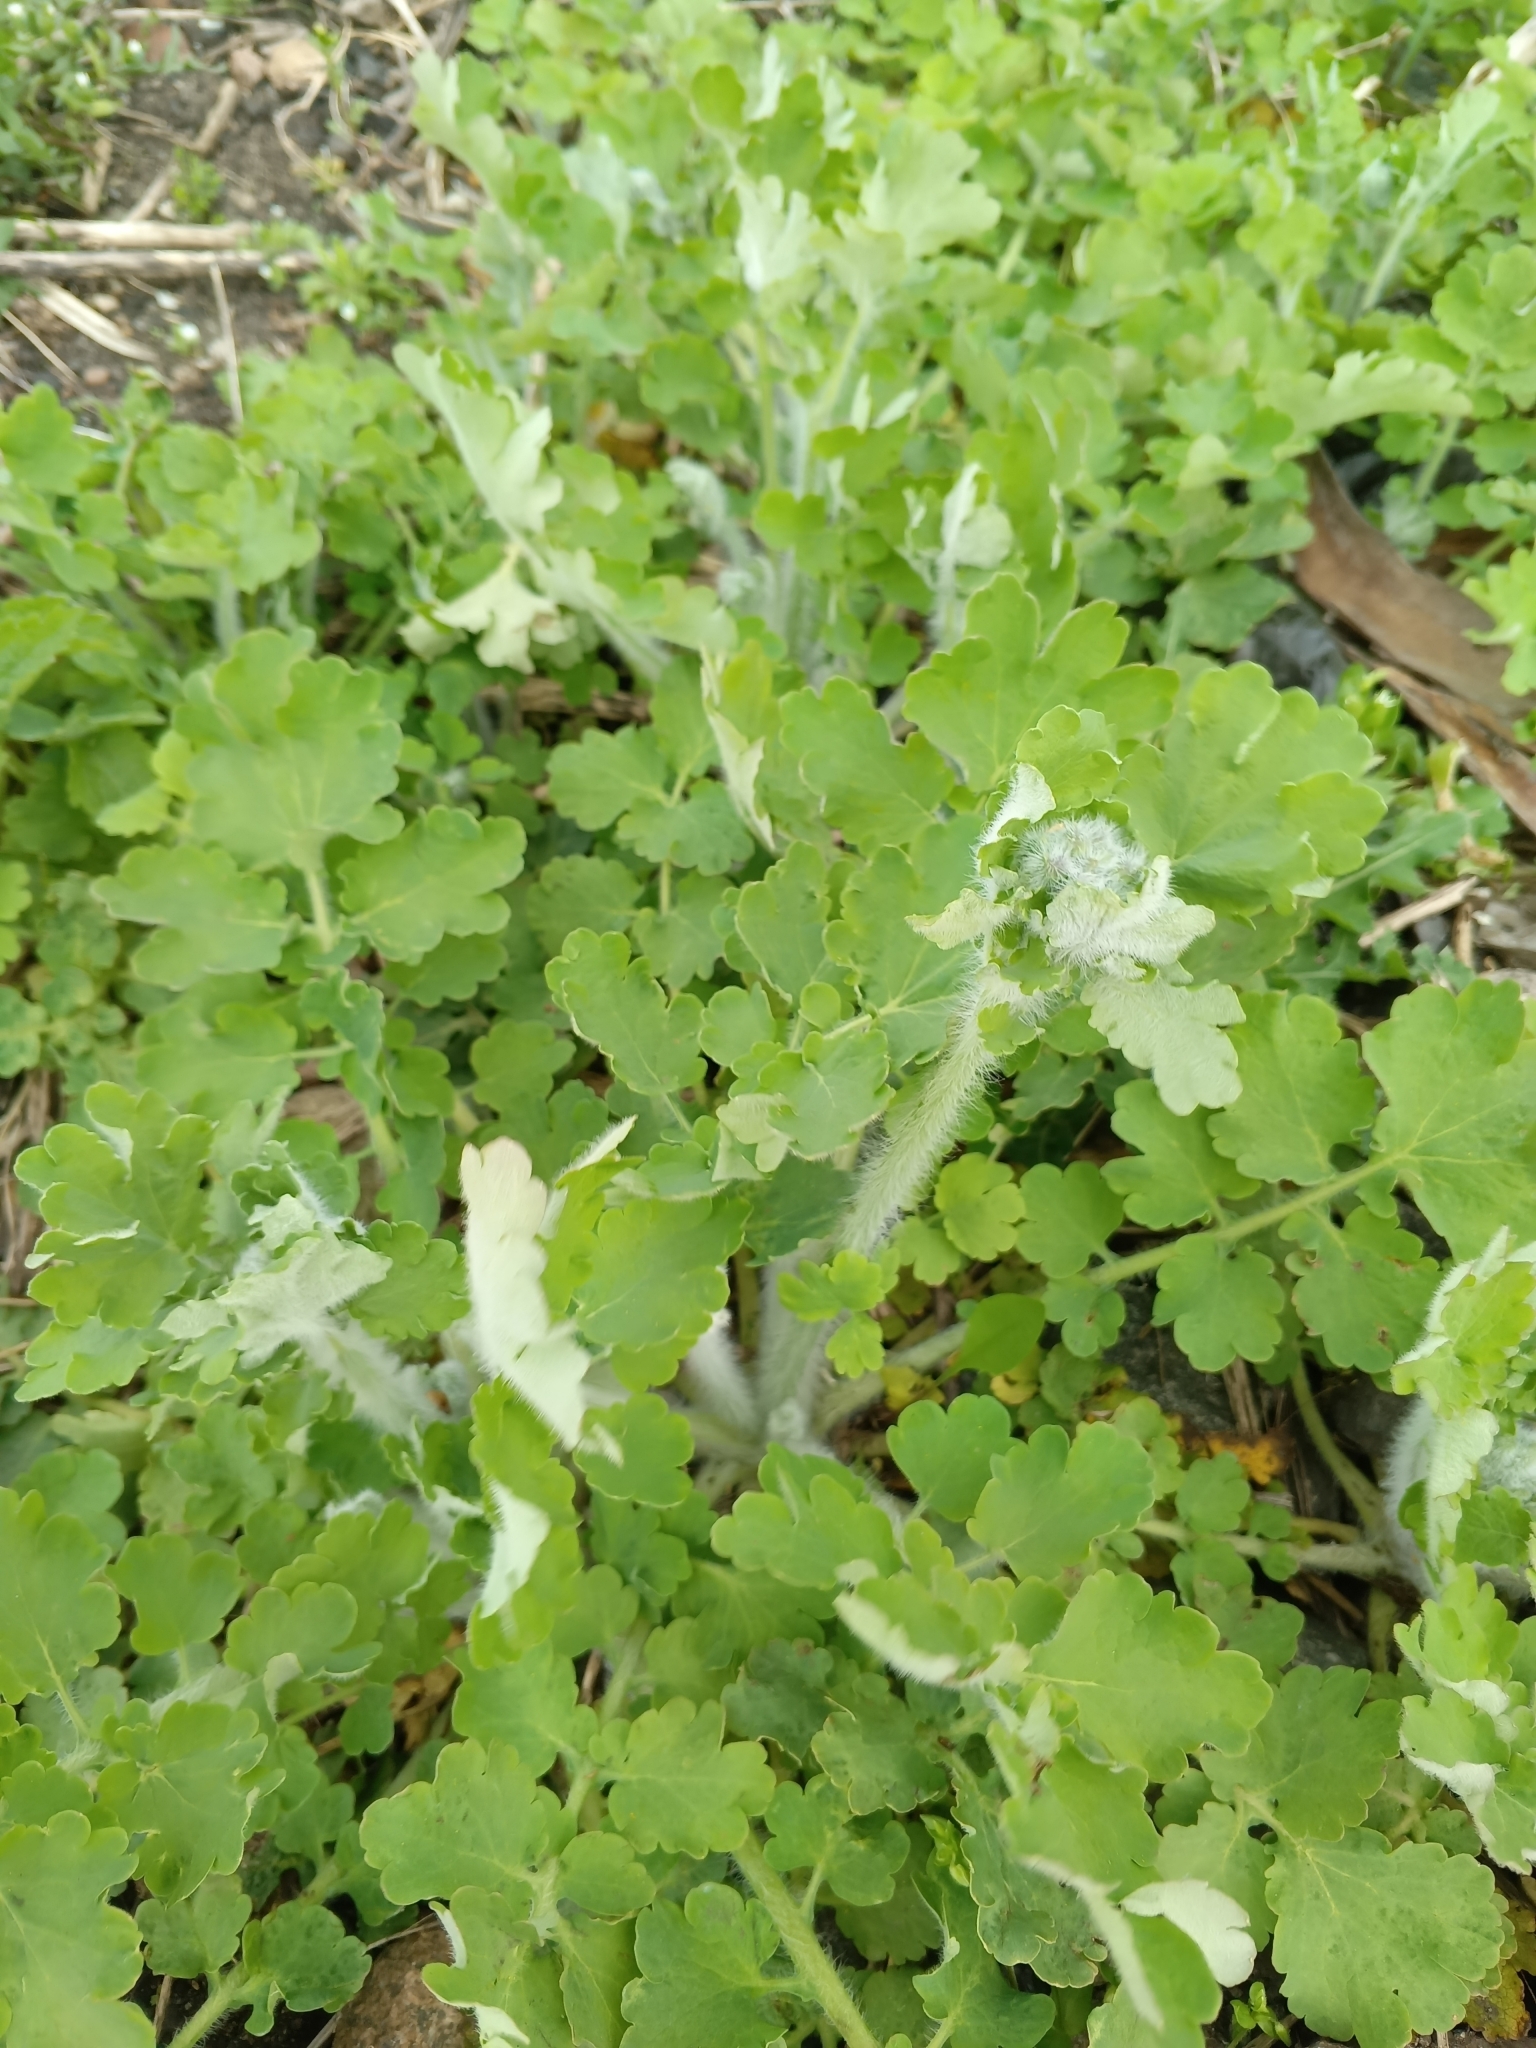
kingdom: Plantae
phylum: Tracheophyta
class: Magnoliopsida
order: Ranunculales
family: Papaveraceae
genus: Chelidonium
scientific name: Chelidonium majus
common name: Greater celandine
